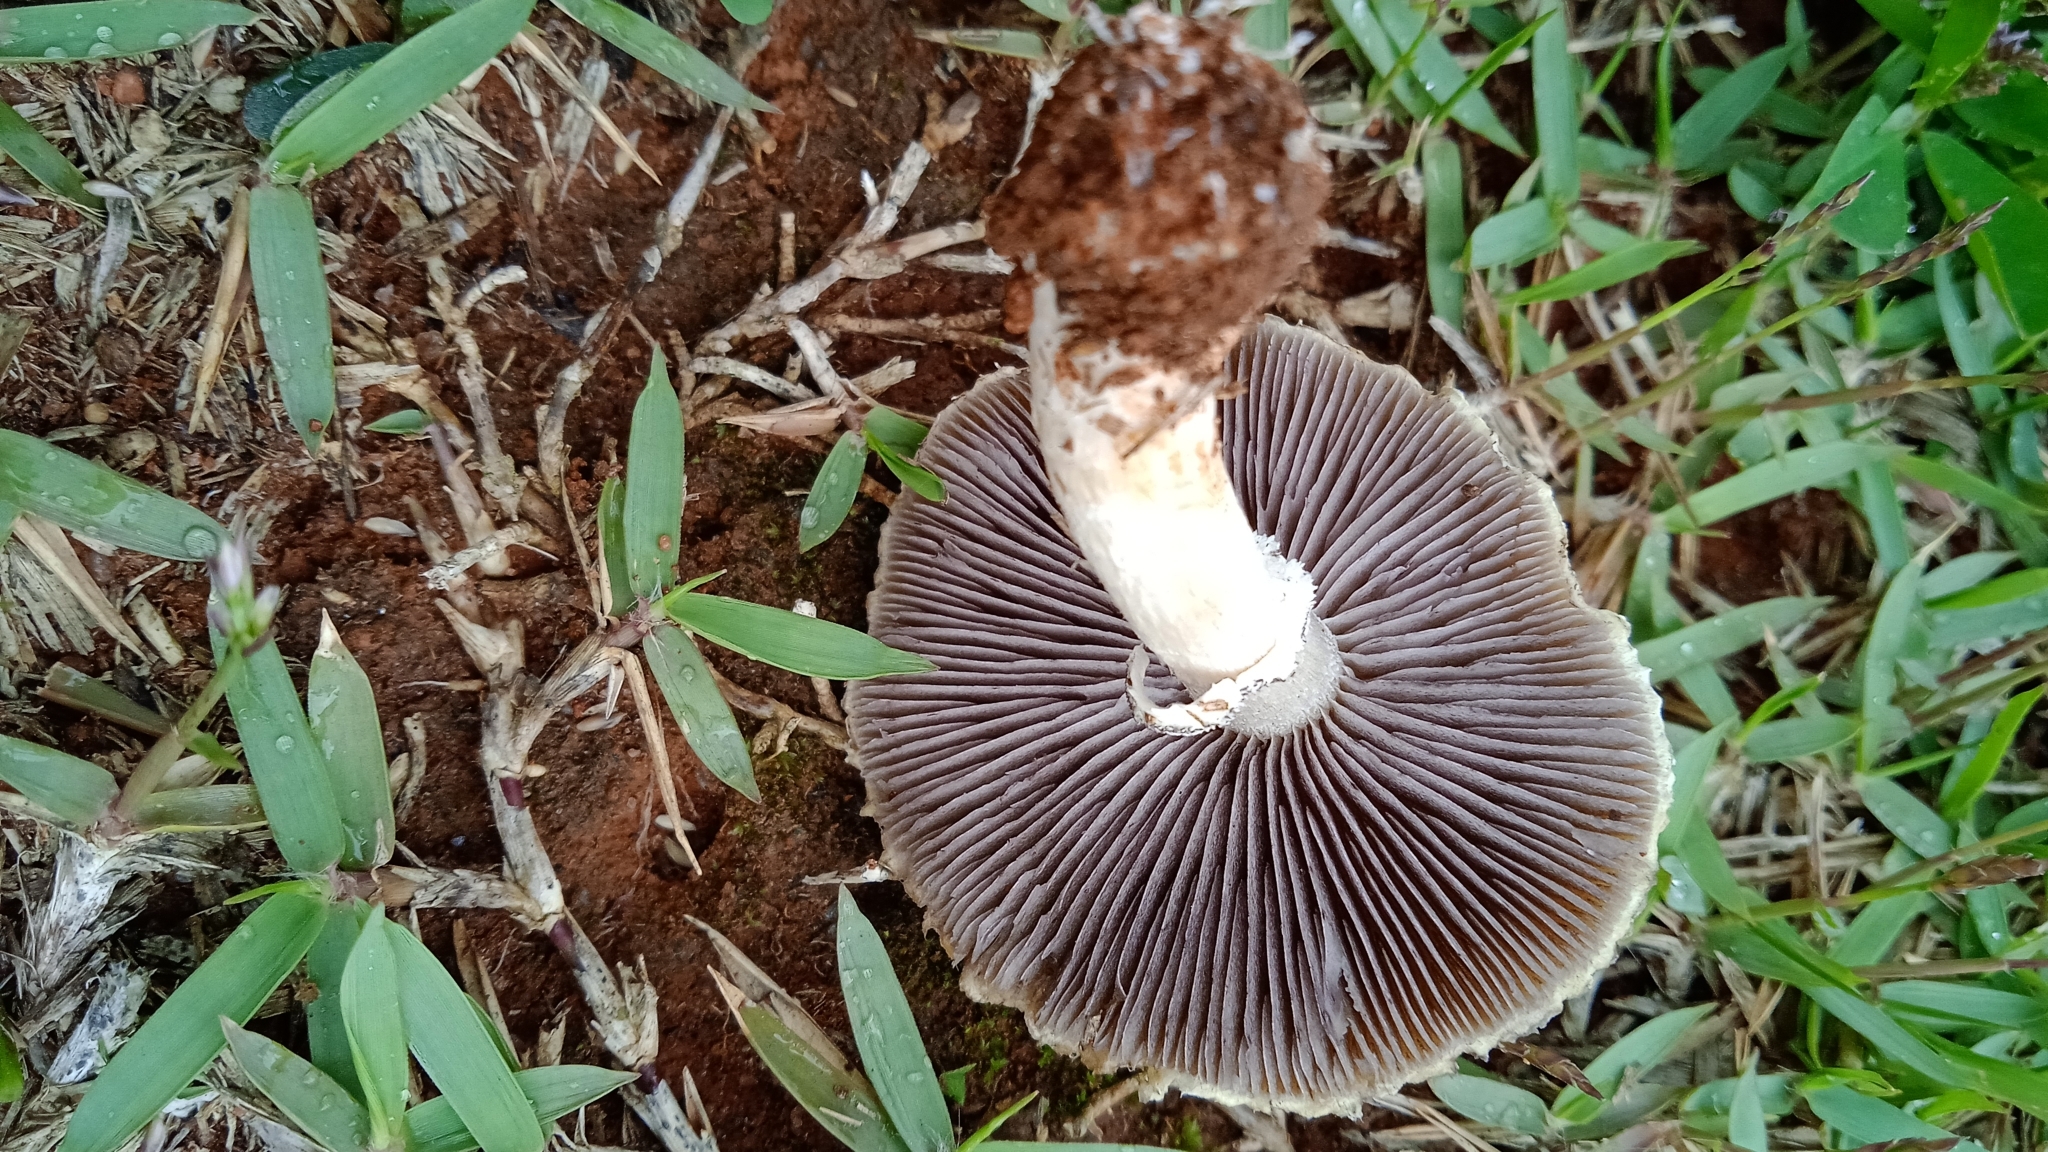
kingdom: Fungi
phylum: Basidiomycota
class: Agaricomycetes
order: Agaricales
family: Hymenogastraceae
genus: Psilocybe
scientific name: Psilocybe coronilla
